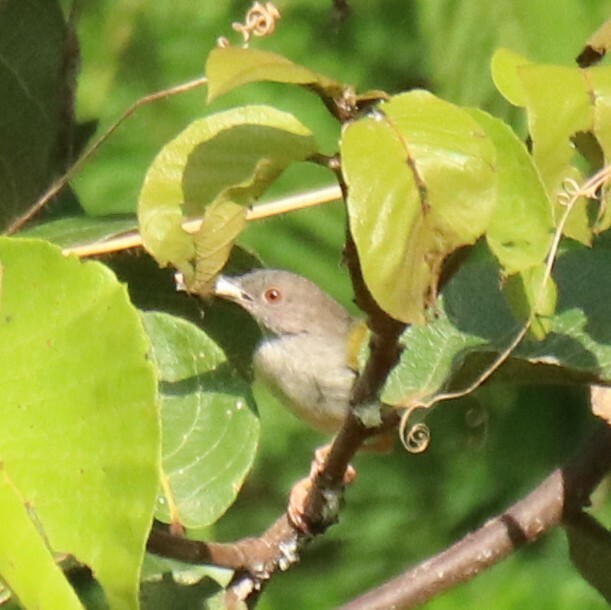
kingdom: Animalia
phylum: Chordata
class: Aves
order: Passeriformes
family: Cisticolidae
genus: Camaroptera
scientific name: Camaroptera brachyura
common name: Green-backed camaroptera
